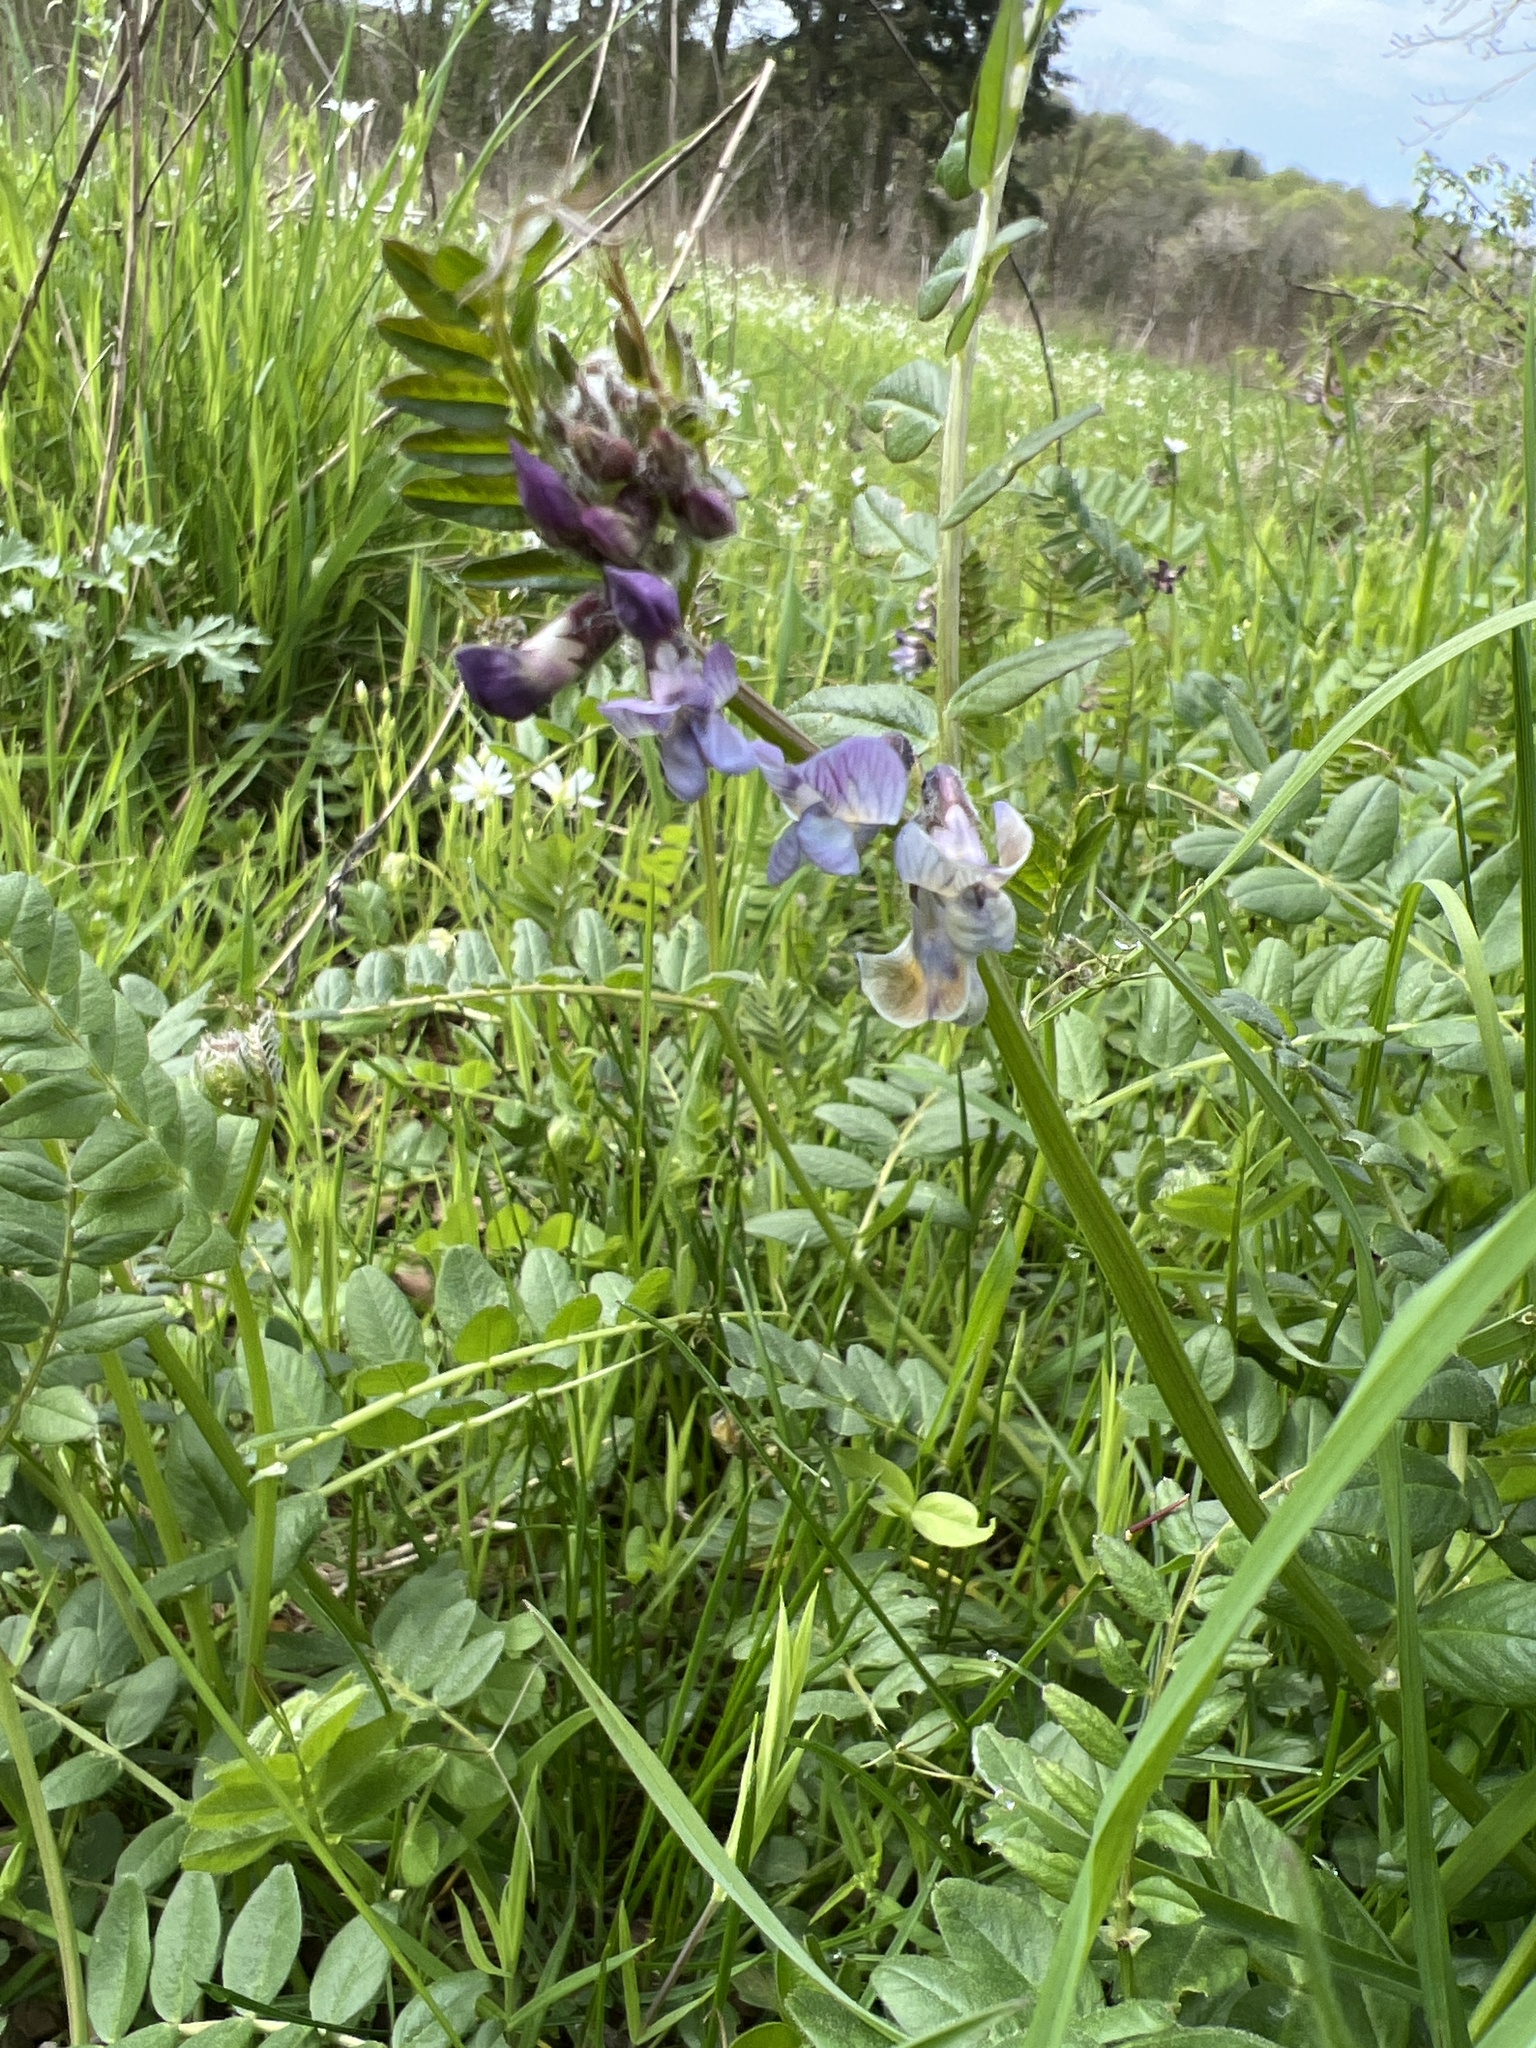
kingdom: Plantae
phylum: Tracheophyta
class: Magnoliopsida
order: Fabales
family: Fabaceae
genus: Vicia
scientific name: Vicia sepium
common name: Bush vetch
